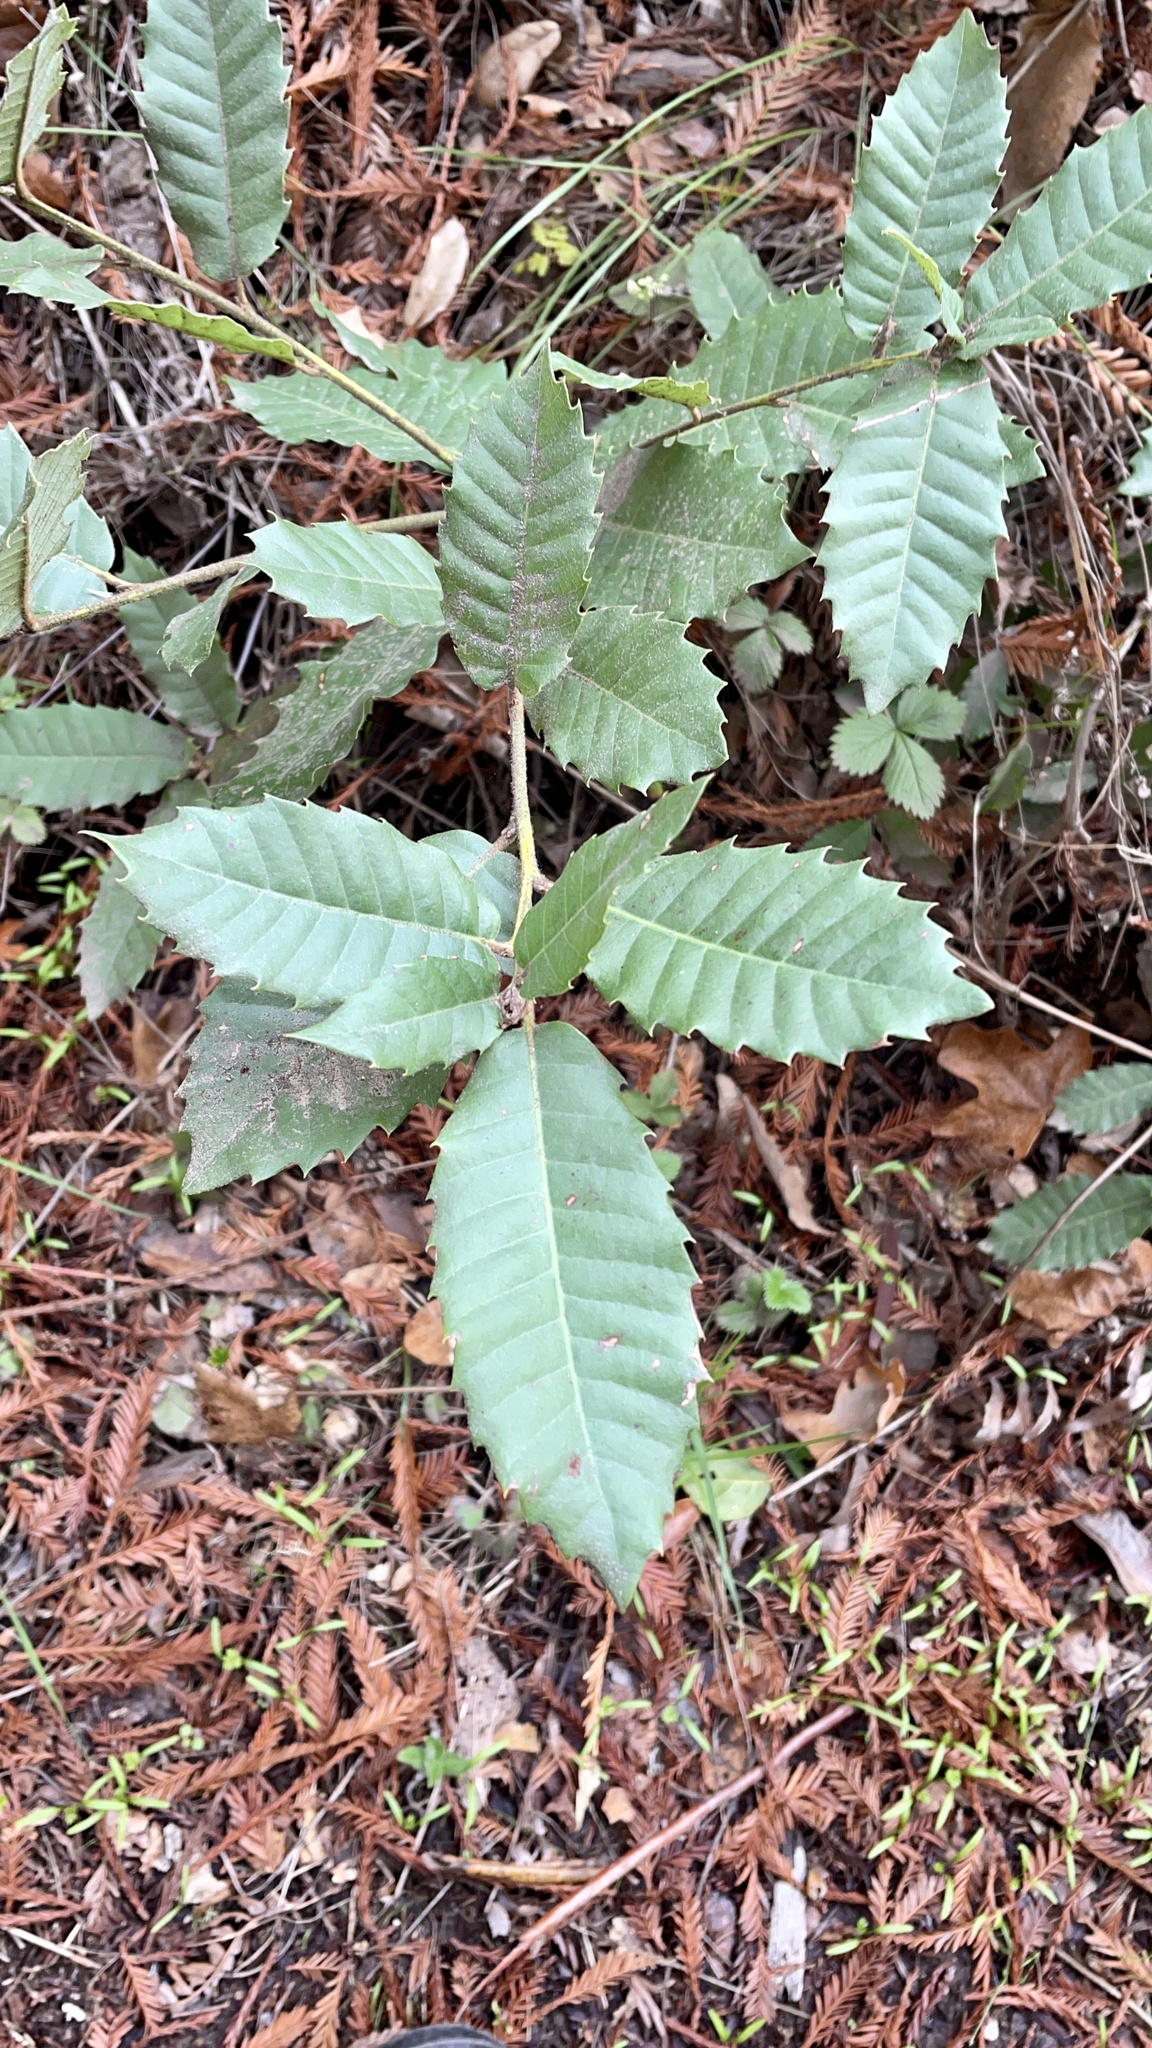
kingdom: Plantae
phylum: Tracheophyta
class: Magnoliopsida
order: Fagales
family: Fagaceae
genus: Notholithocarpus
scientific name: Notholithocarpus densiflorus
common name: Tan bark oak
